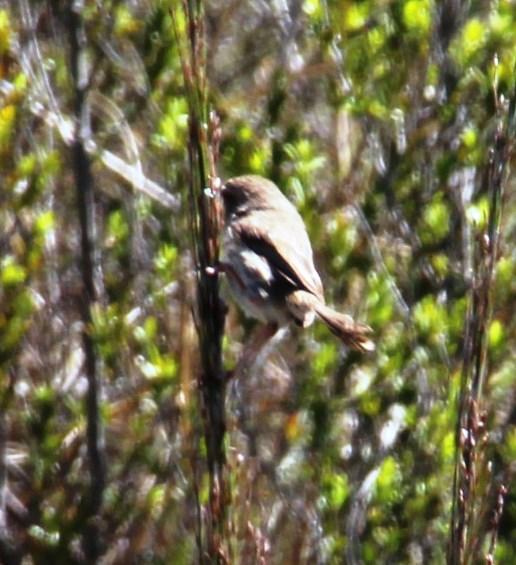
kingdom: Animalia
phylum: Chordata
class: Aves
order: Passeriformes
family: Cisticolidae
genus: Prinia
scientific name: Prinia maculosa
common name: Karoo prinia
